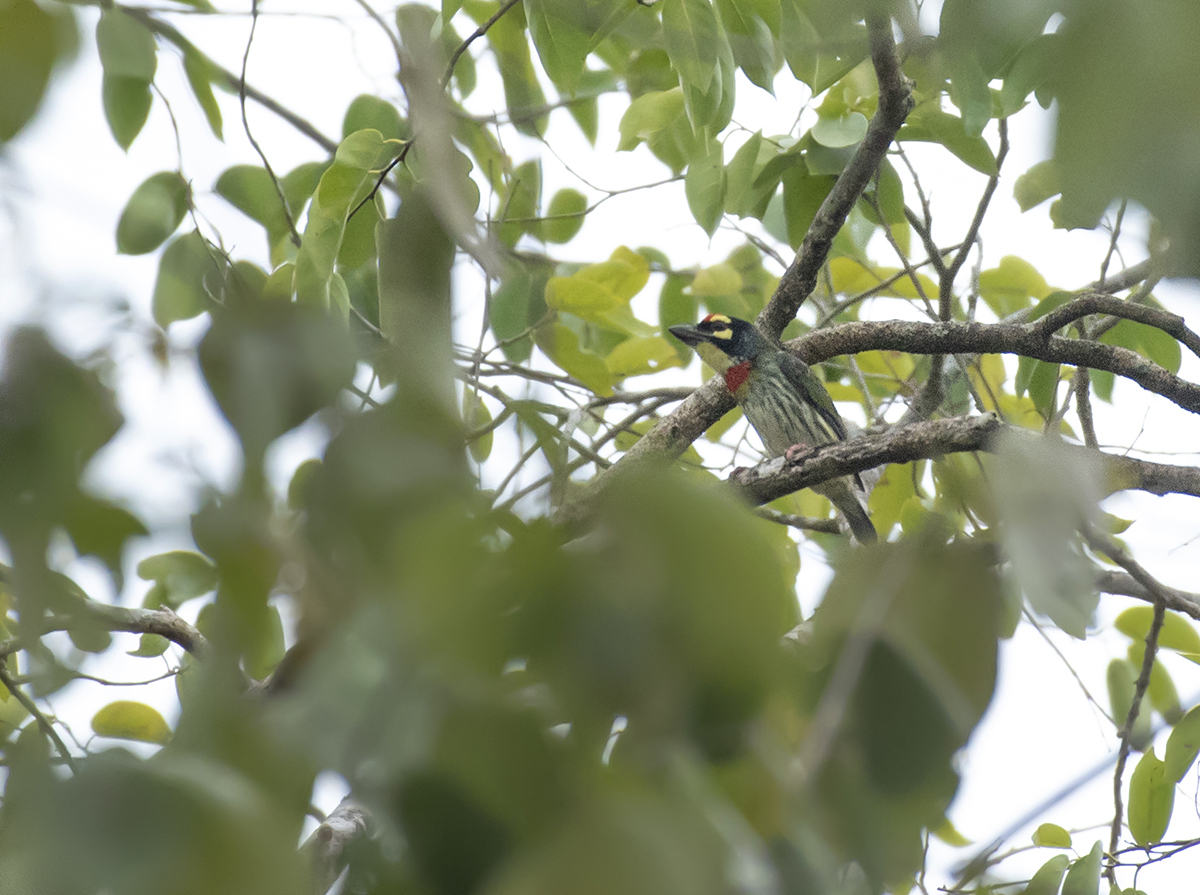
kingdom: Animalia
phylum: Chordata
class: Aves
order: Piciformes
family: Megalaimidae
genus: Psilopogon
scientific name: Psilopogon haemacephalus
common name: Coppersmith barbet
